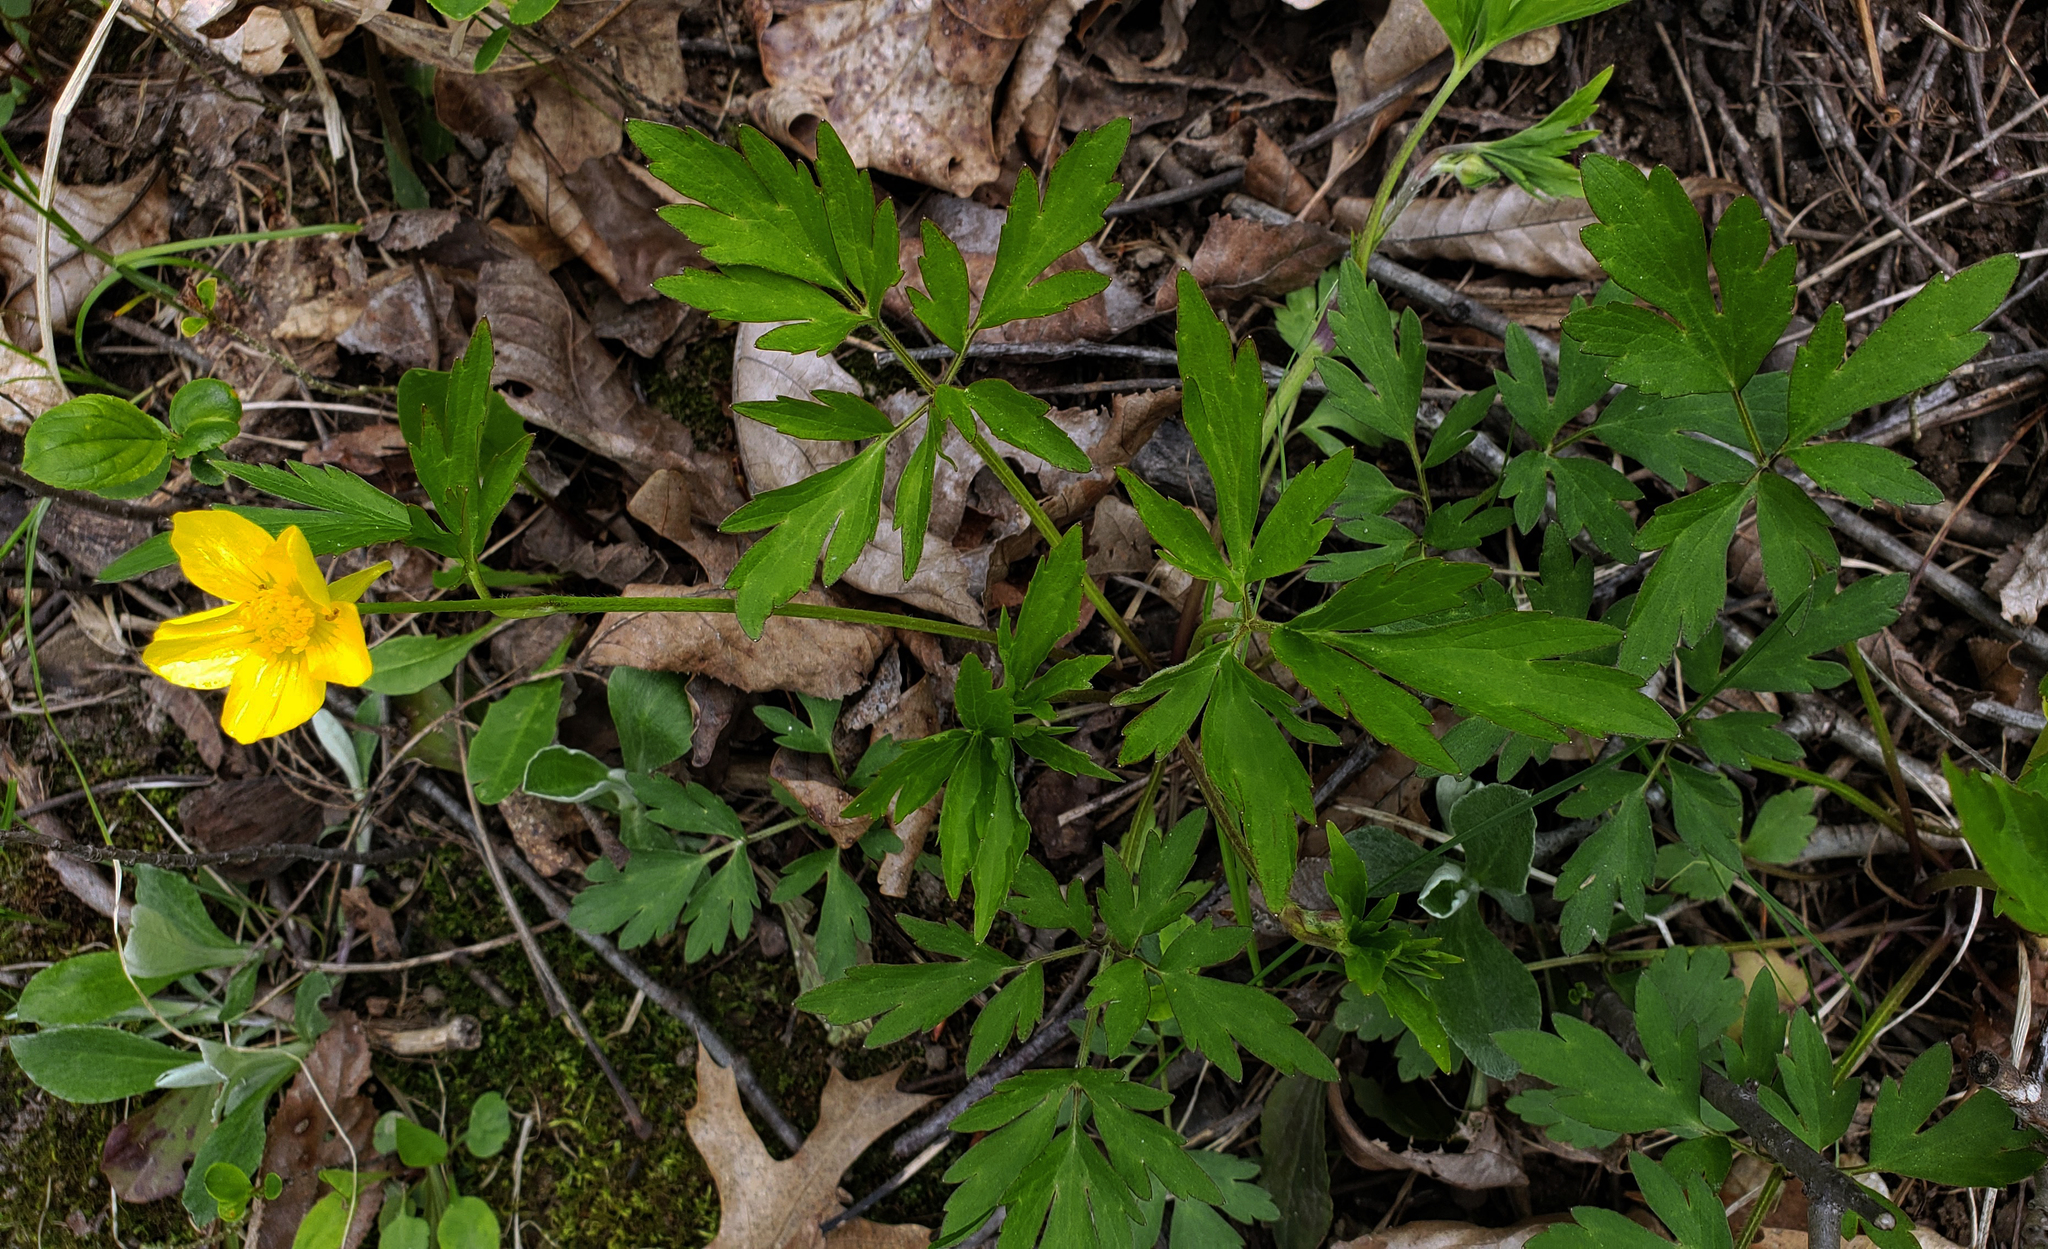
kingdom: Plantae
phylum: Tracheophyta
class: Magnoliopsida
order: Ranunculales
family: Ranunculaceae
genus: Ranunculus
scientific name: Ranunculus hispidus
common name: Bristly buttercup
